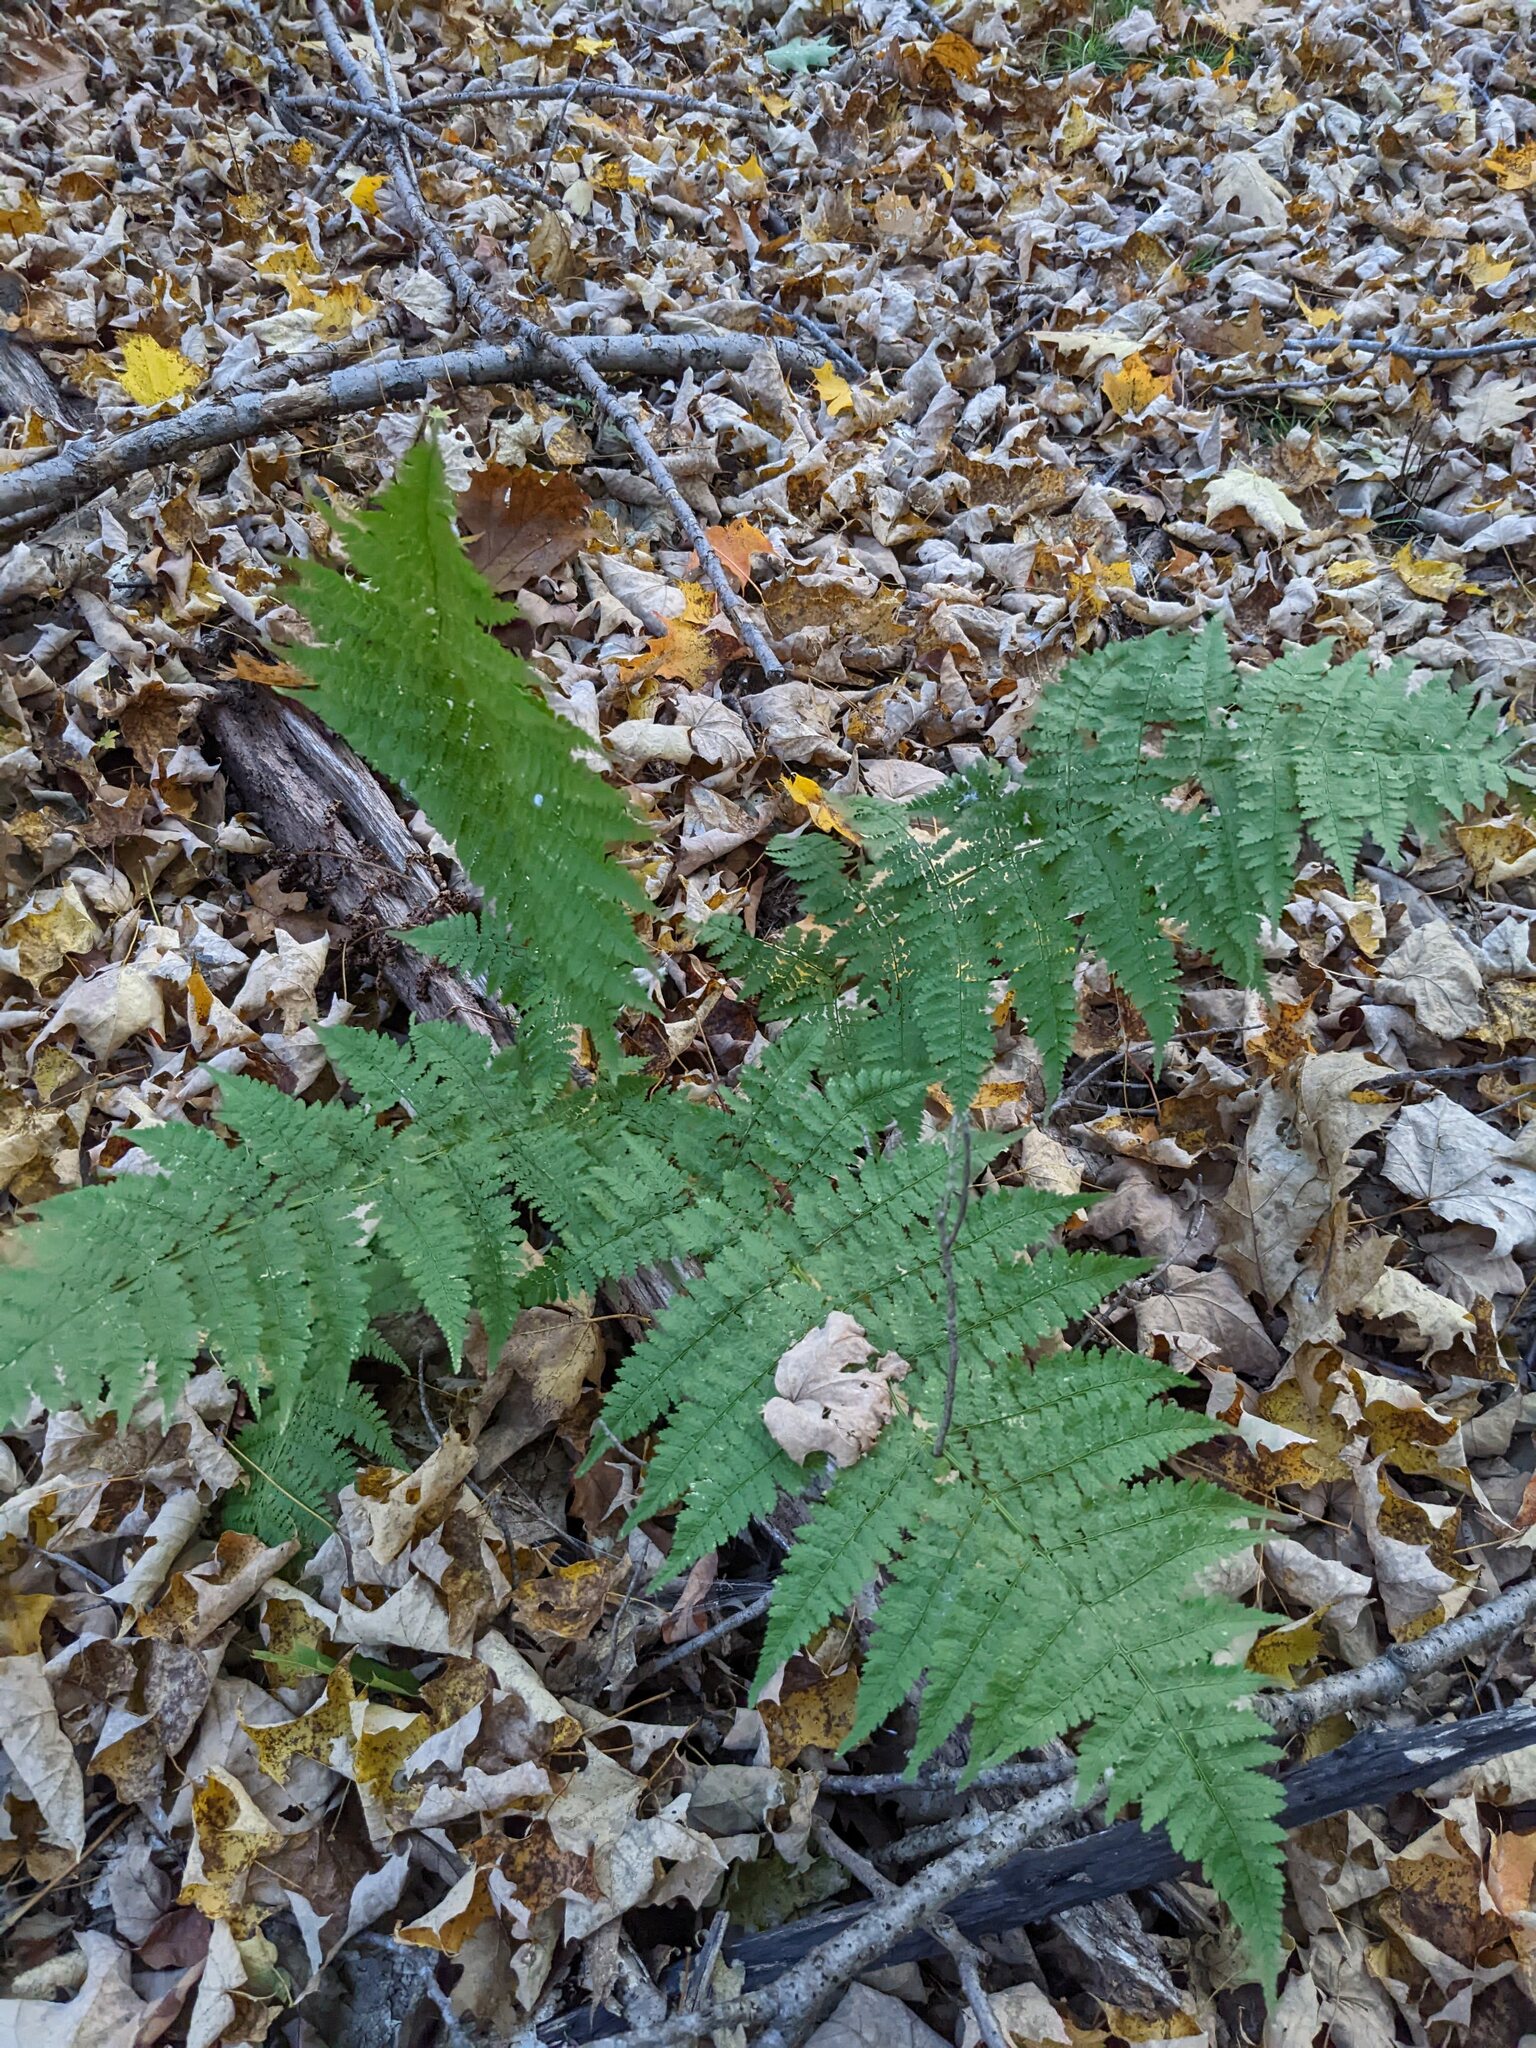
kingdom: Plantae
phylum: Tracheophyta
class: Polypodiopsida
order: Polypodiales
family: Dryopteridaceae
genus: Dryopteris
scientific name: Dryopteris intermedia
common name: Evergreen wood fern
